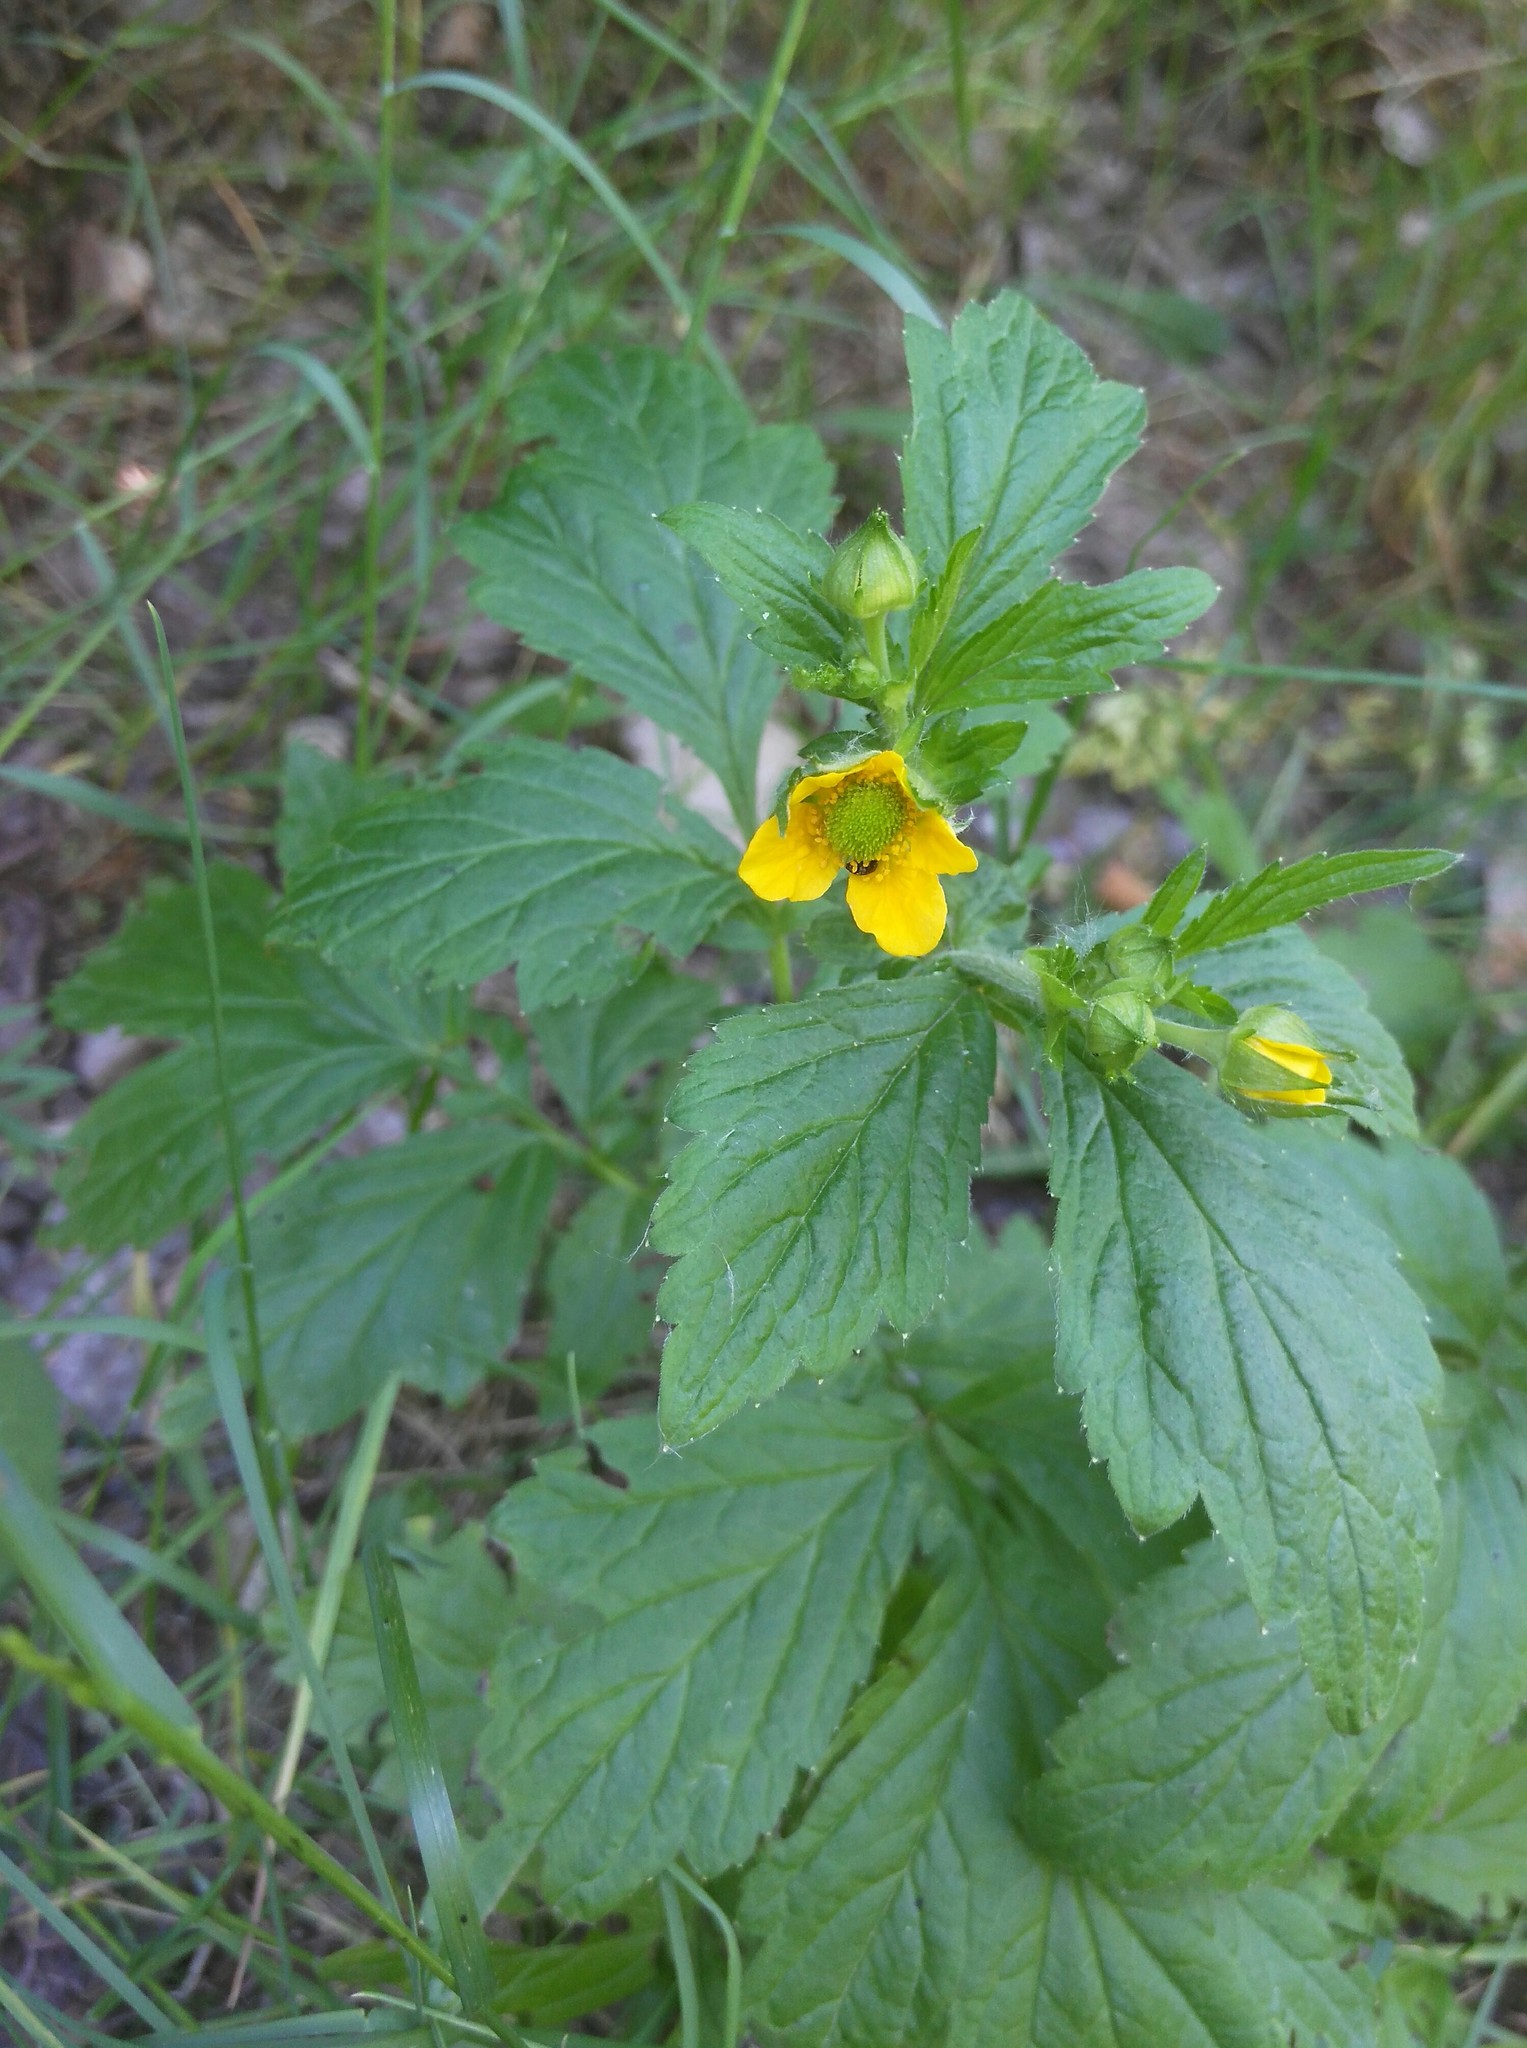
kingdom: Plantae
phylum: Tracheophyta
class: Magnoliopsida
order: Rosales
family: Rosaceae
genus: Geum
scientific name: Geum aleppicum
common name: Yellow avens
